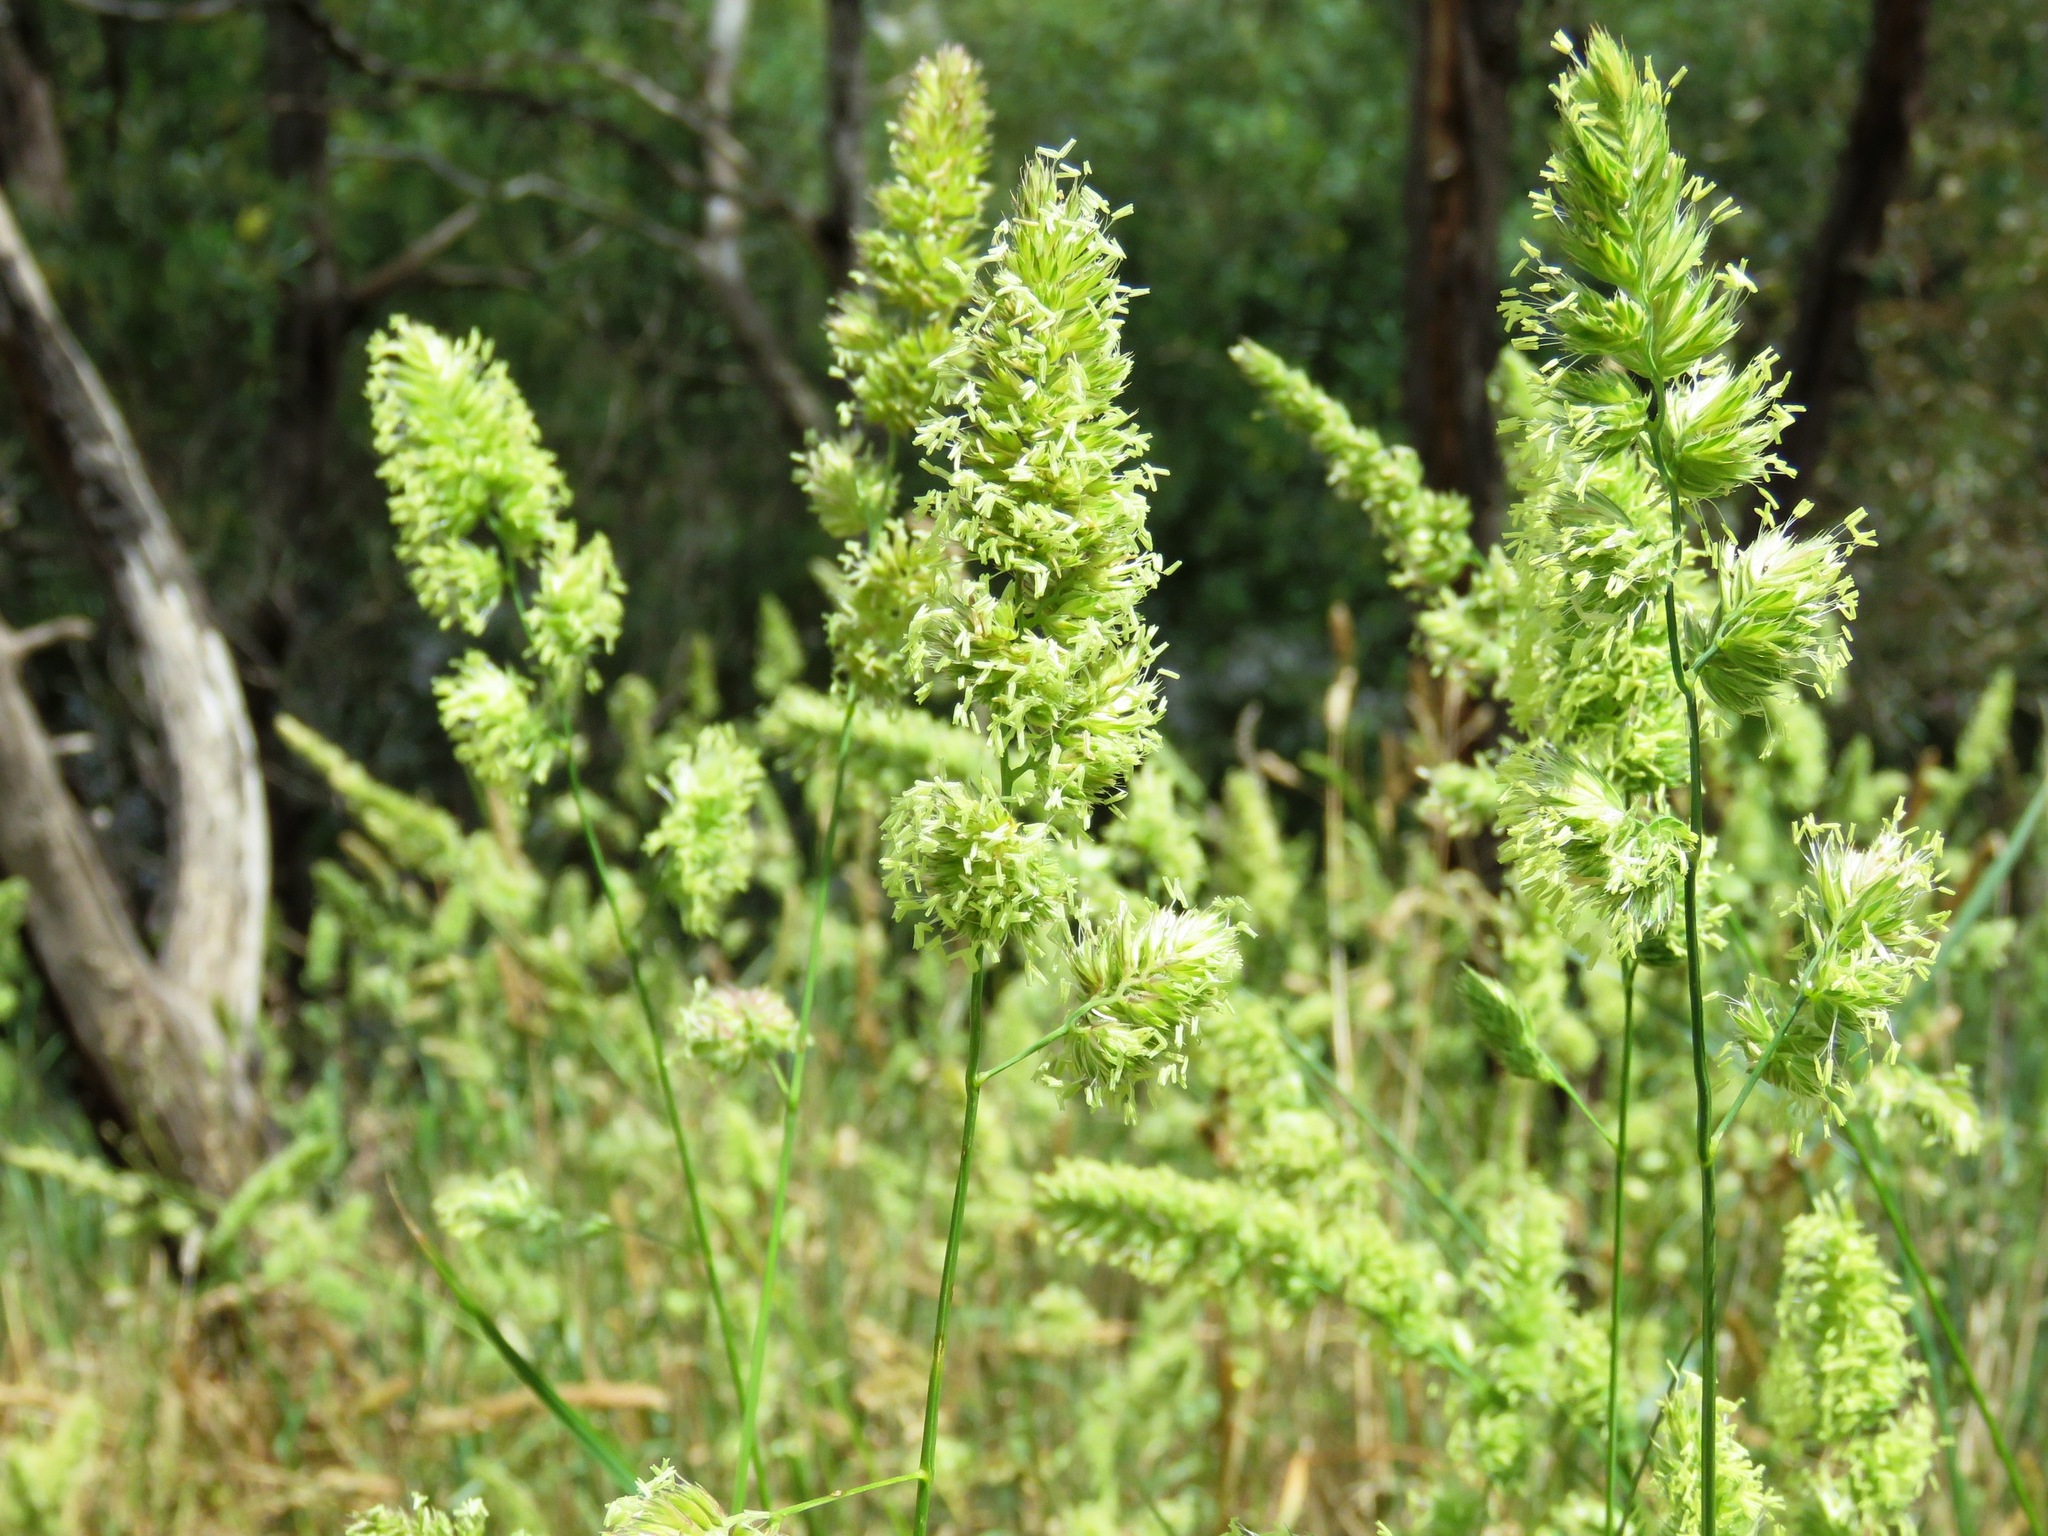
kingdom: Plantae
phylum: Tracheophyta
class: Liliopsida
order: Poales
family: Poaceae
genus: Dactylis
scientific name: Dactylis glomerata
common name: Orchardgrass
